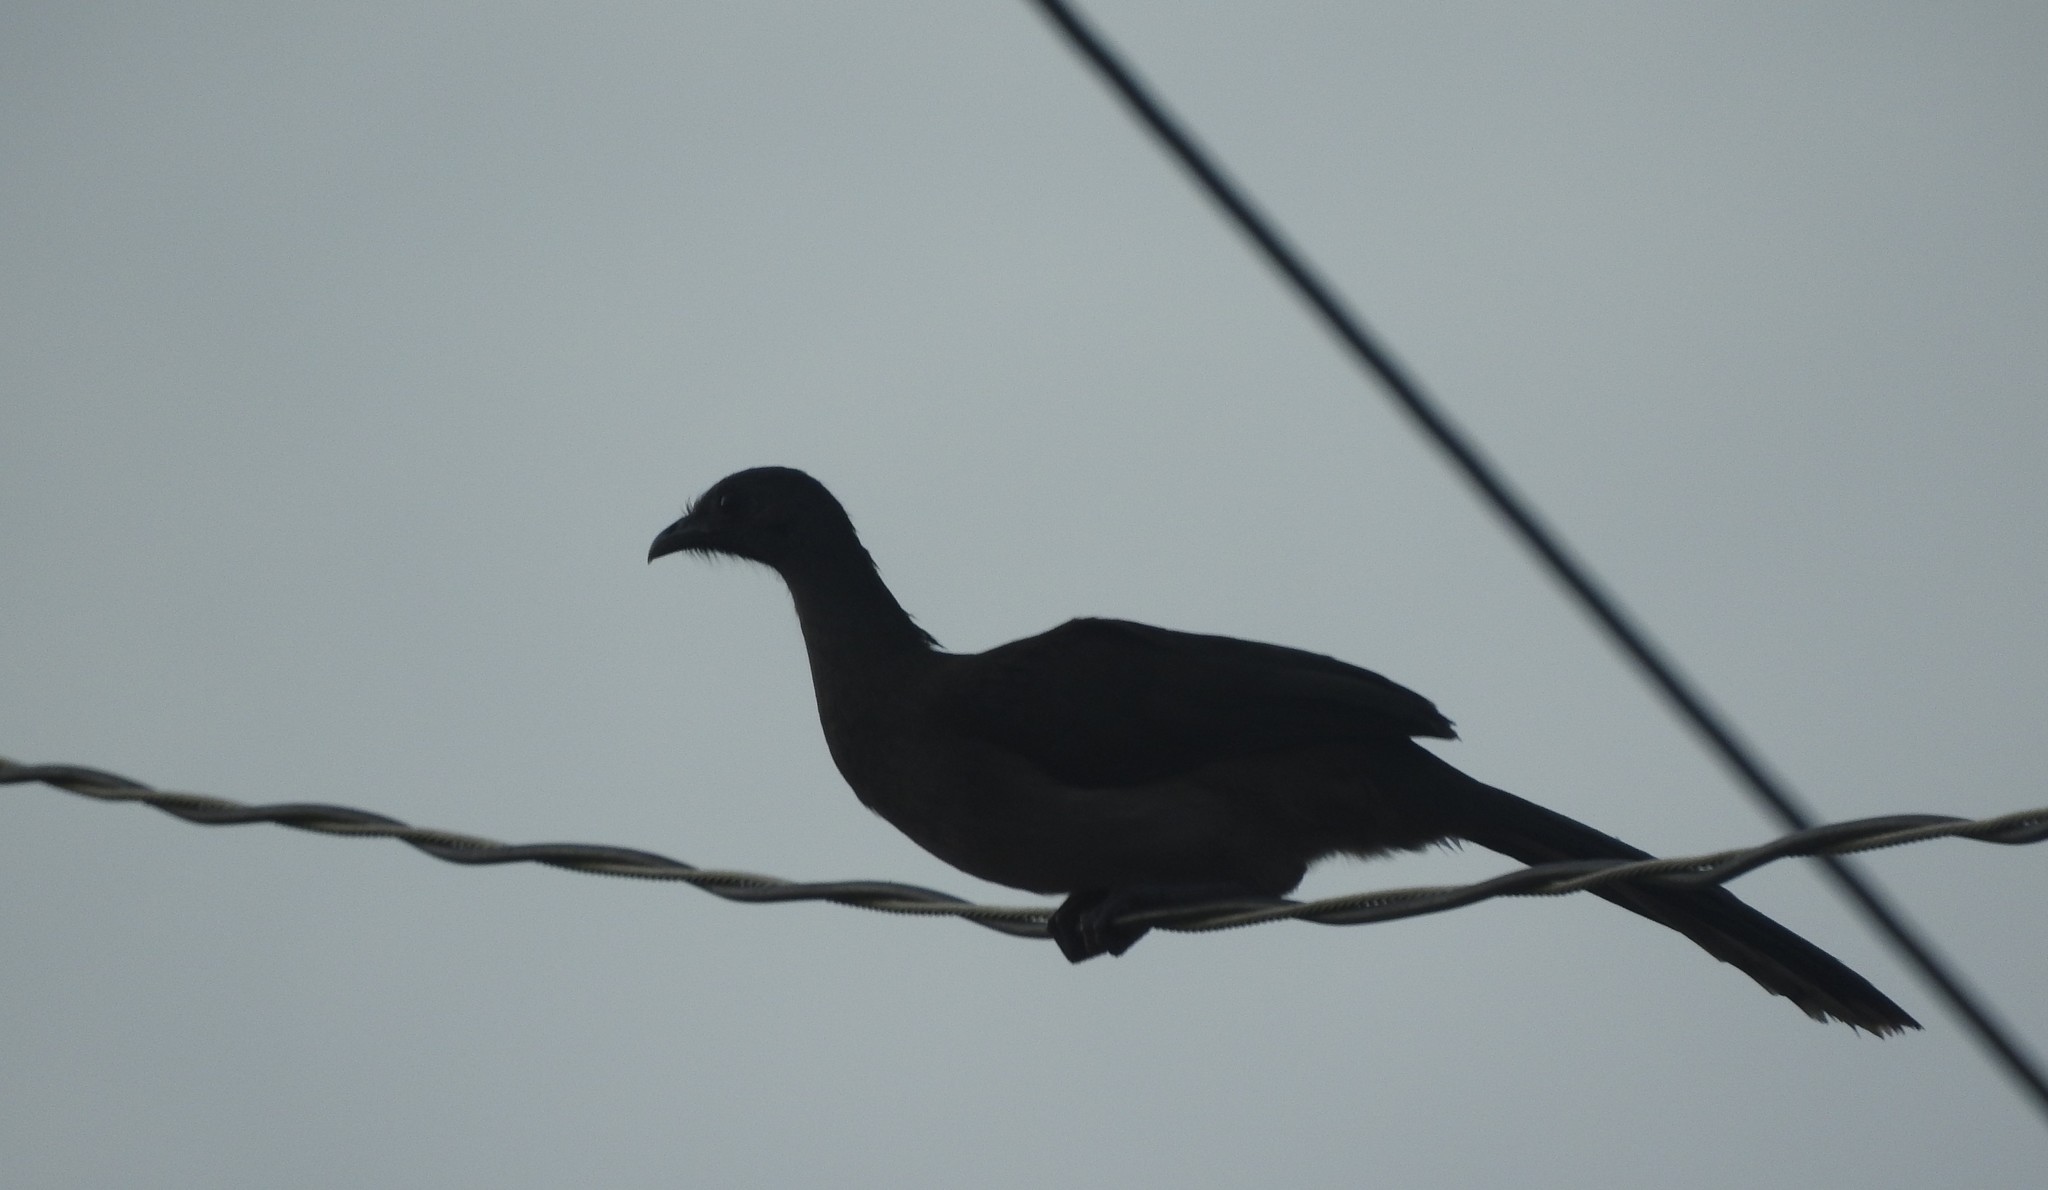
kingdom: Animalia
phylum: Chordata
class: Aves
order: Galliformes
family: Cracidae
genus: Ortalis
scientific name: Ortalis vetula
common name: Plain chachalaca
